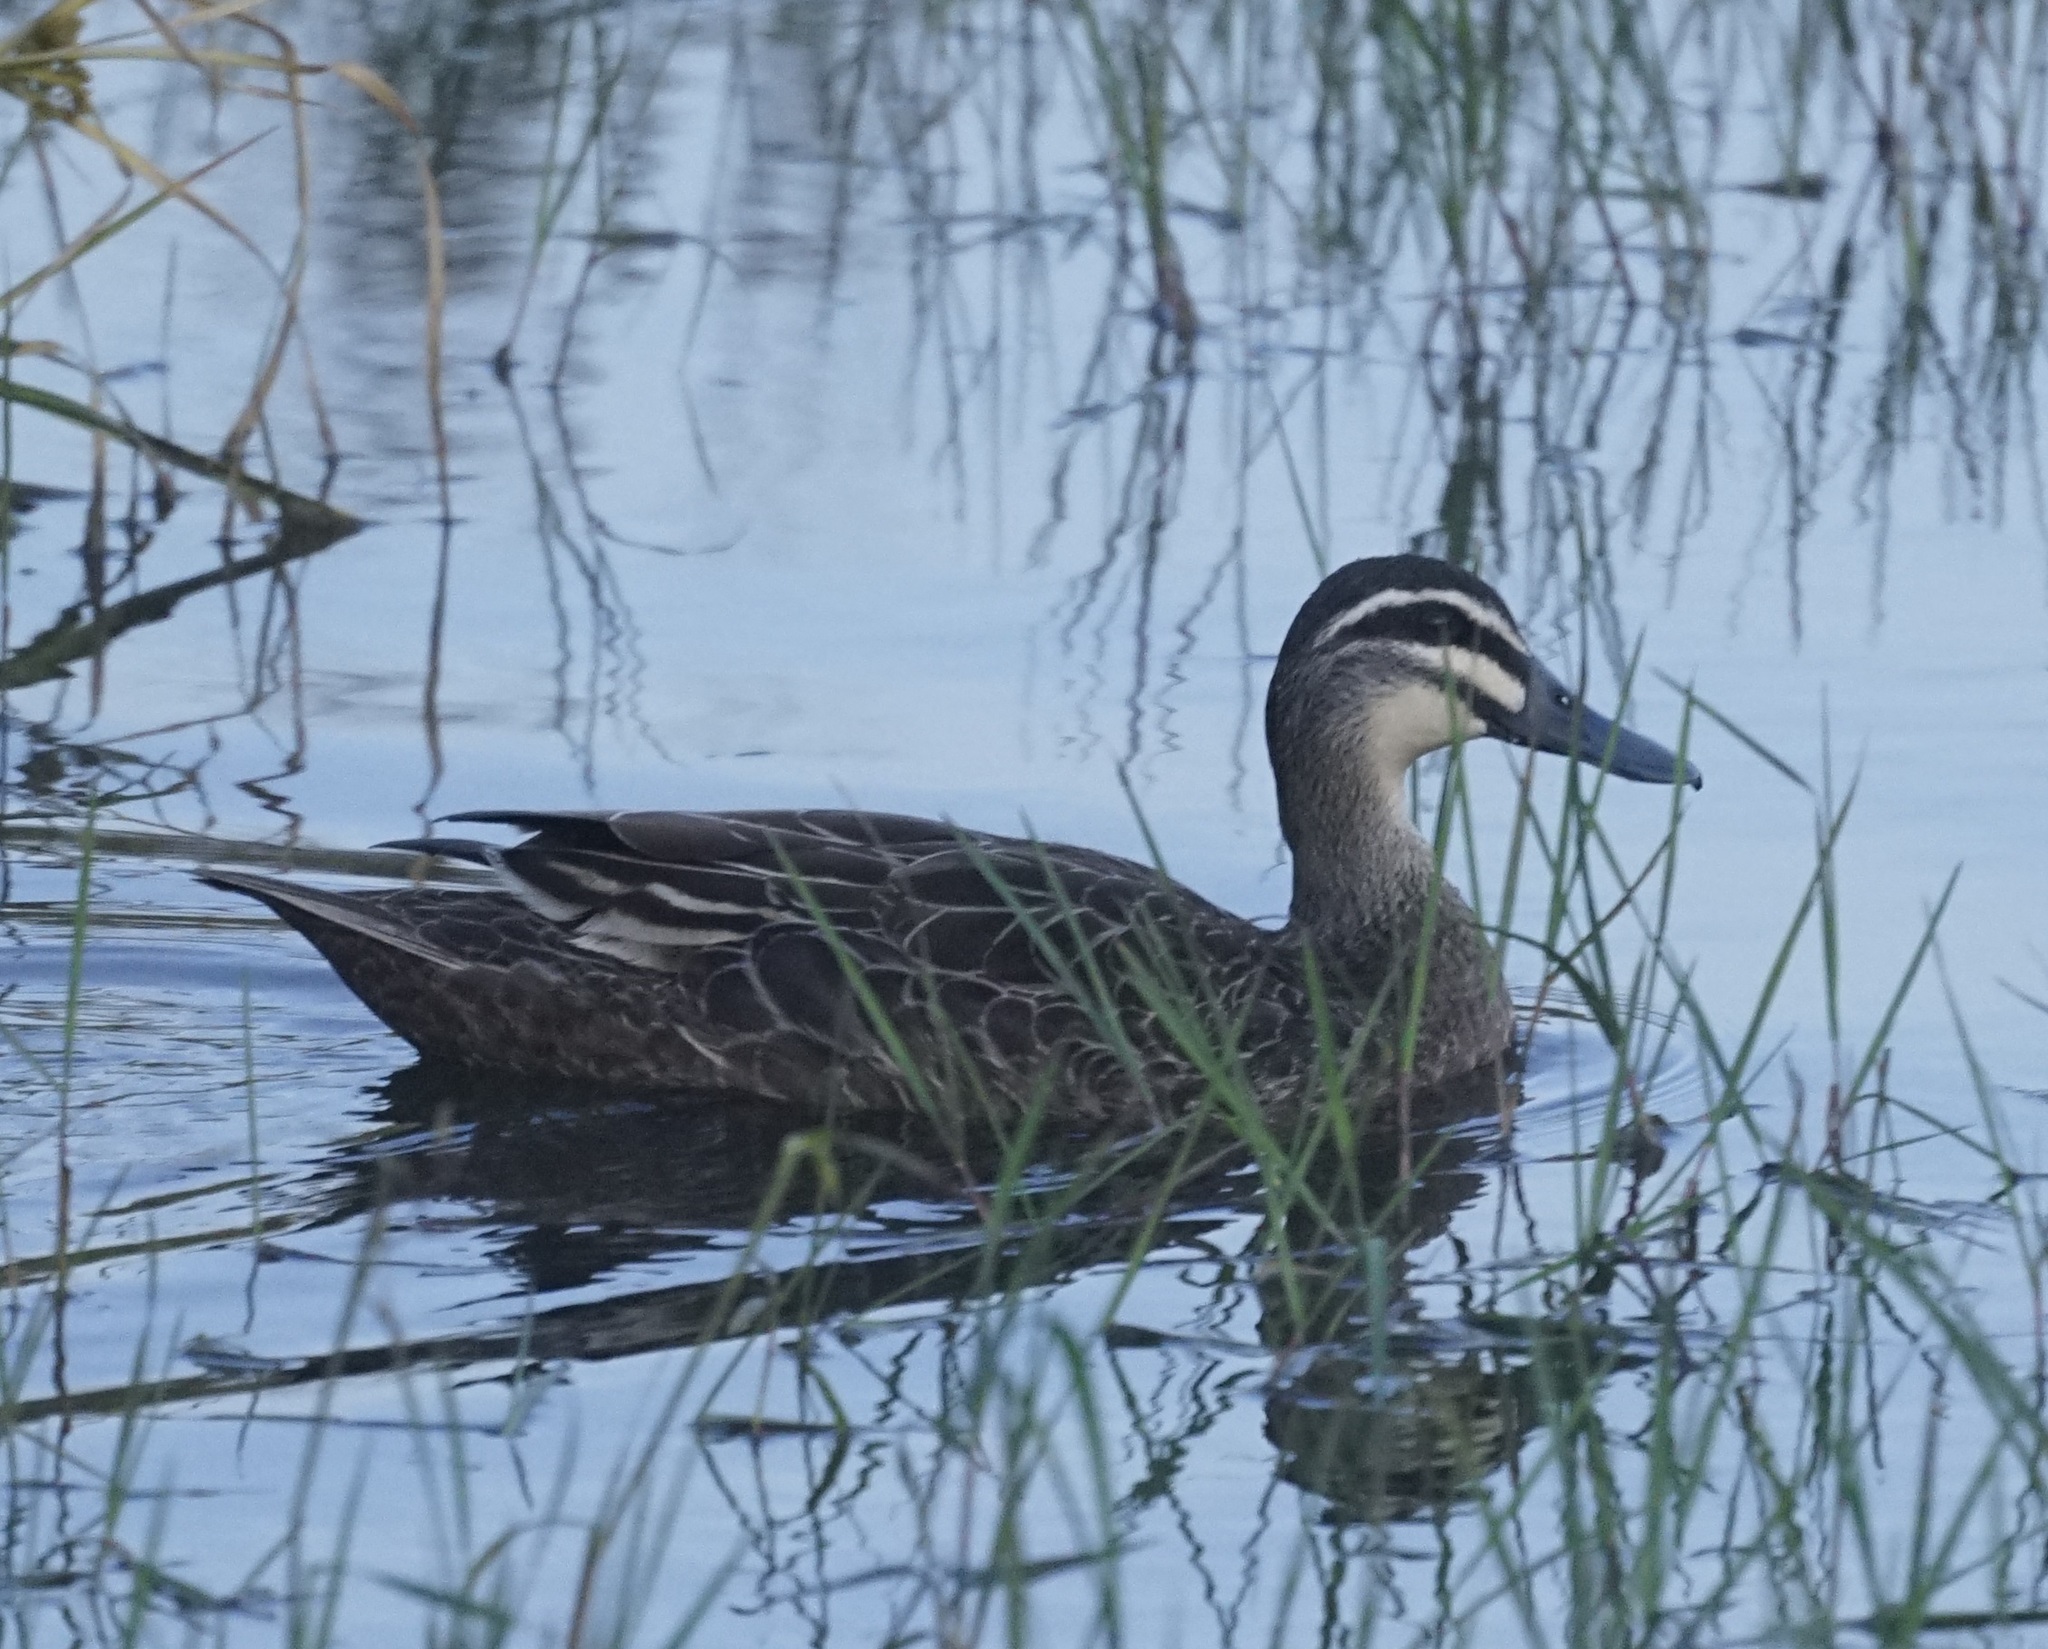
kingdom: Animalia
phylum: Chordata
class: Aves
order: Anseriformes
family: Anatidae
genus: Anas
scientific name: Anas superciliosa
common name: Pacific black duck
